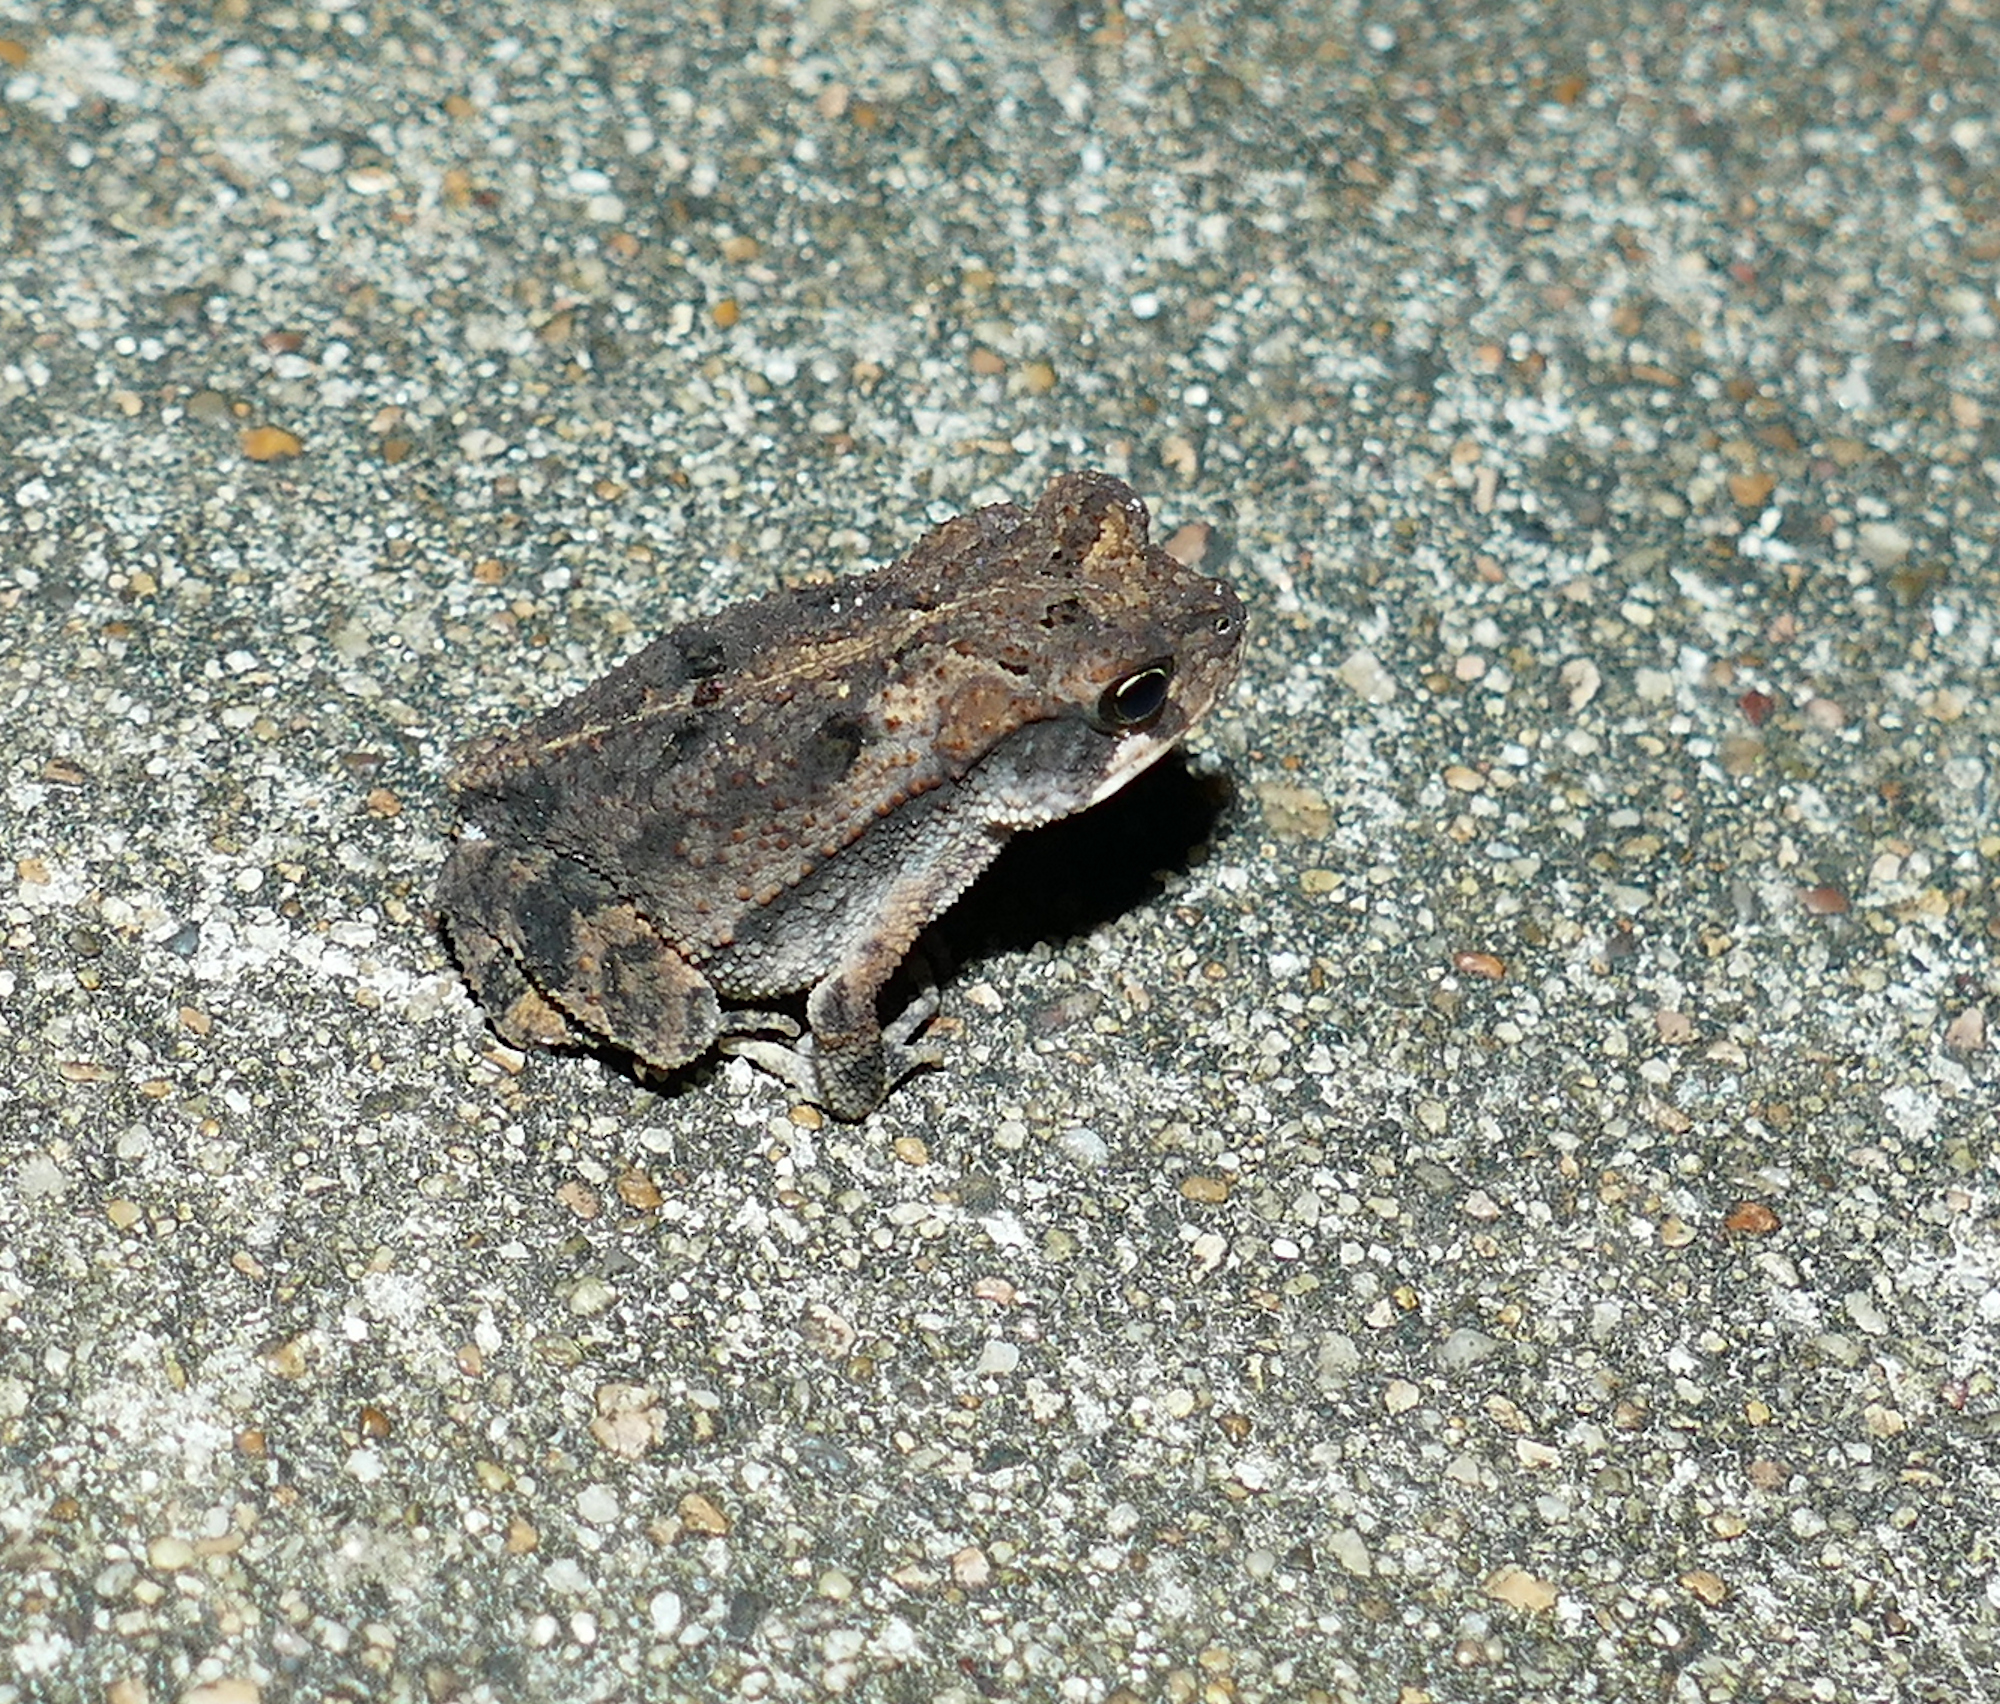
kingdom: Animalia
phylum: Chordata
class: Amphibia
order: Anura
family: Bufonidae
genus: Incilius
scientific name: Incilius nebulifer
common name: Gulf coast toad
